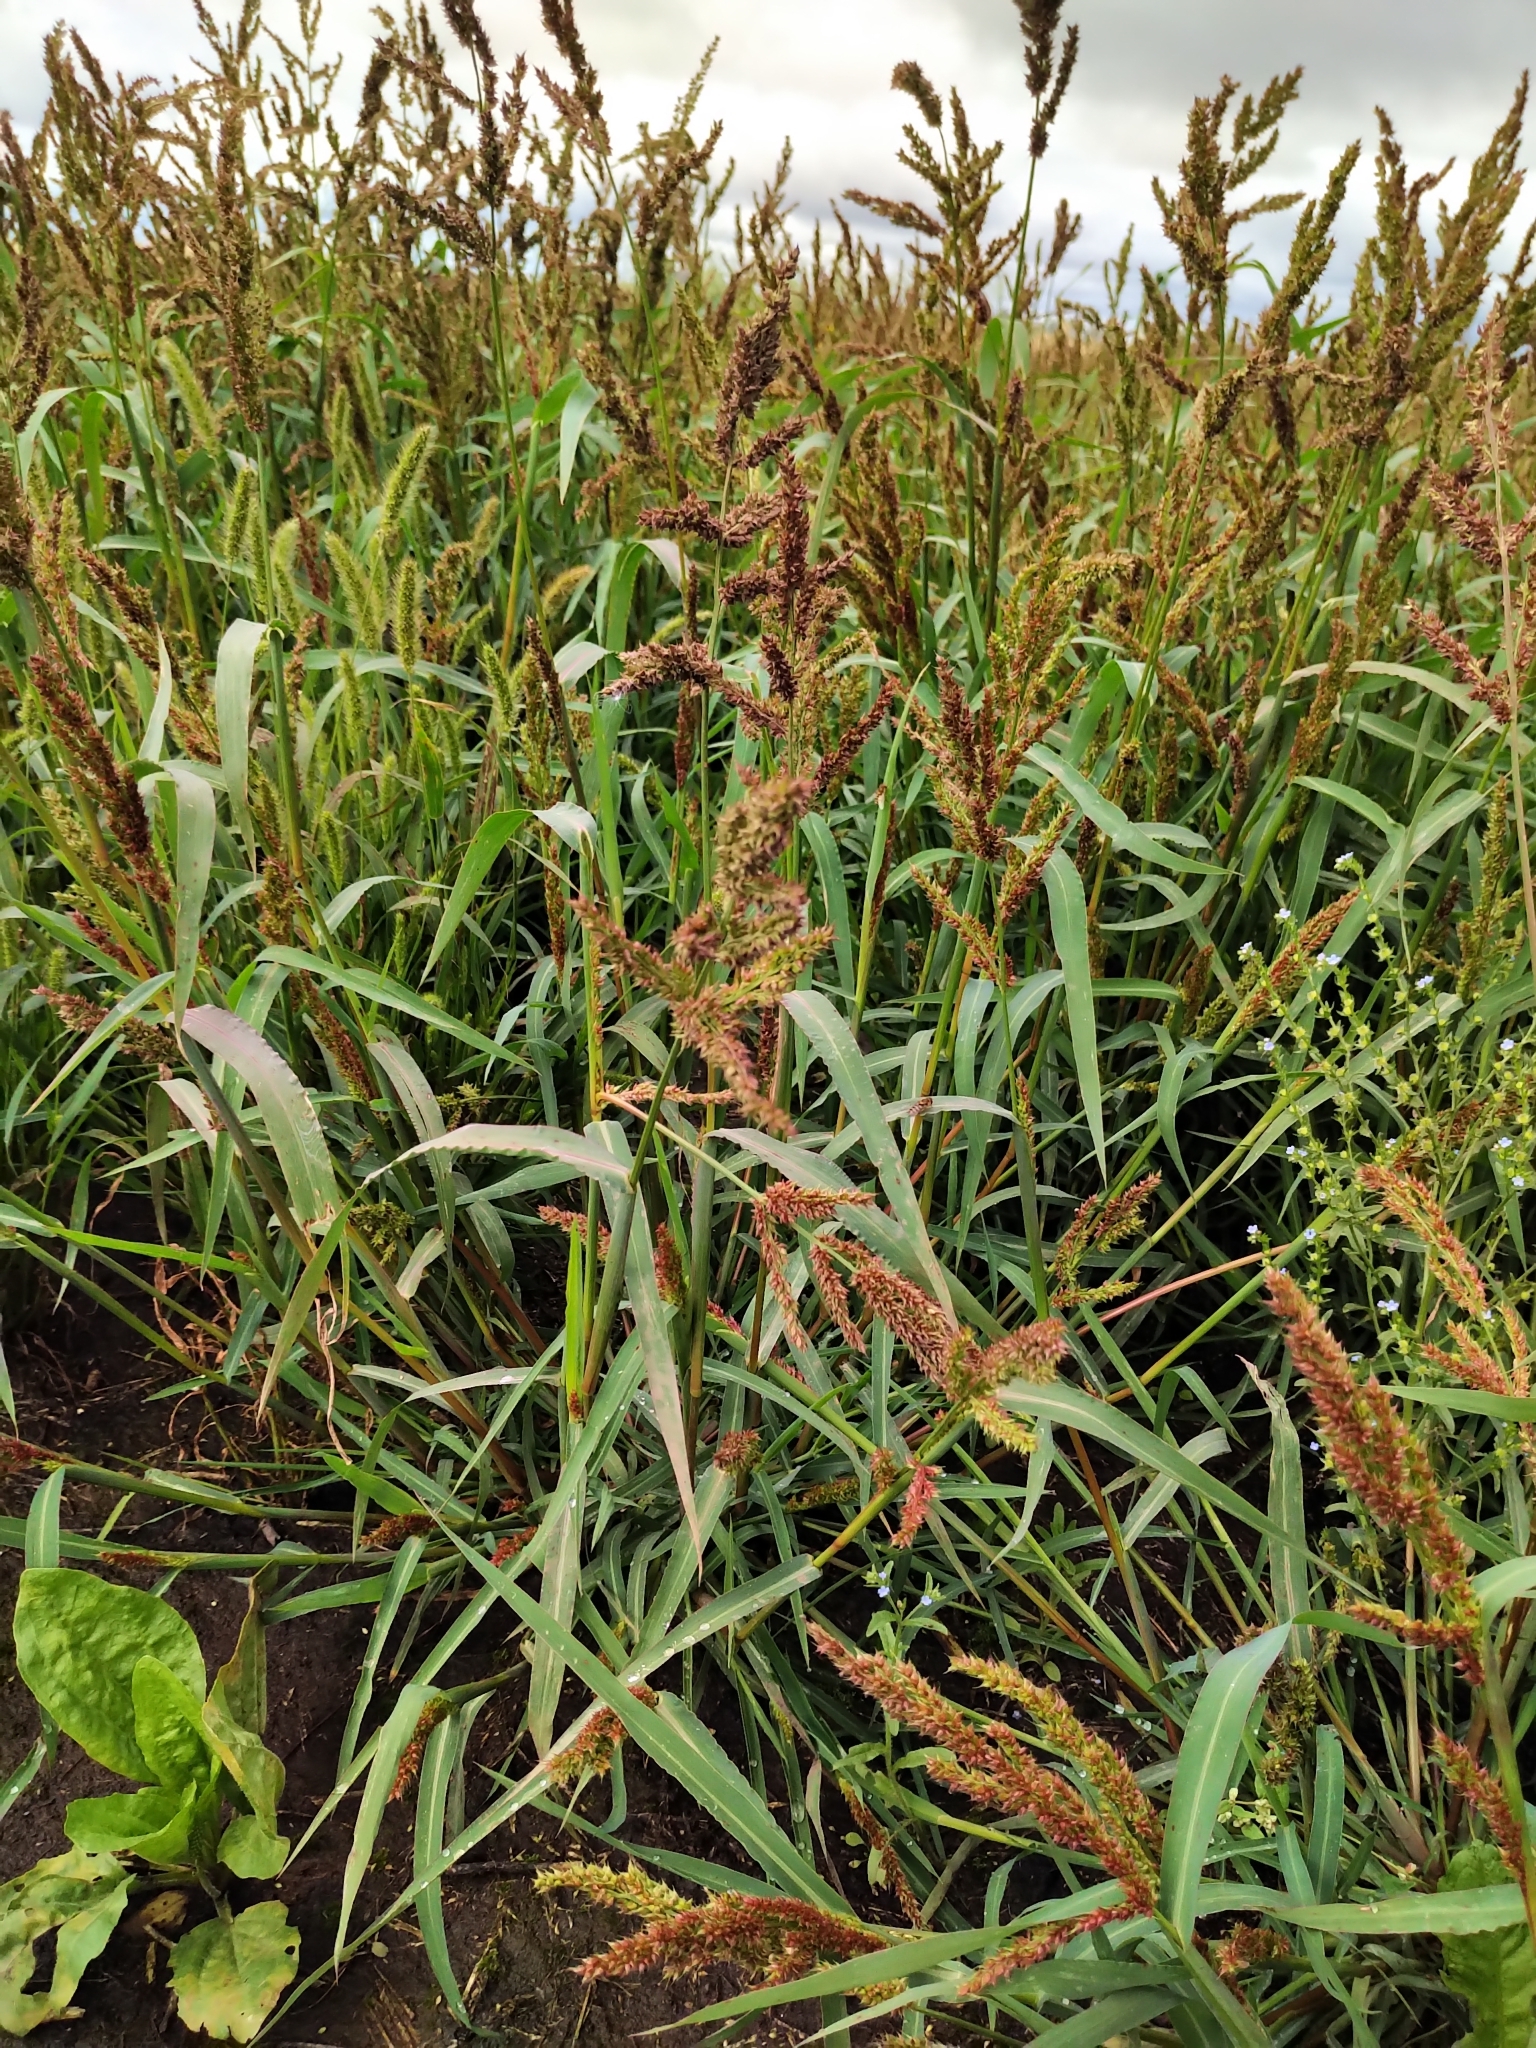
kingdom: Plantae
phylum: Tracheophyta
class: Liliopsida
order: Poales
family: Poaceae
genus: Echinochloa
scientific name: Echinochloa crus-galli
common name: Cockspur
